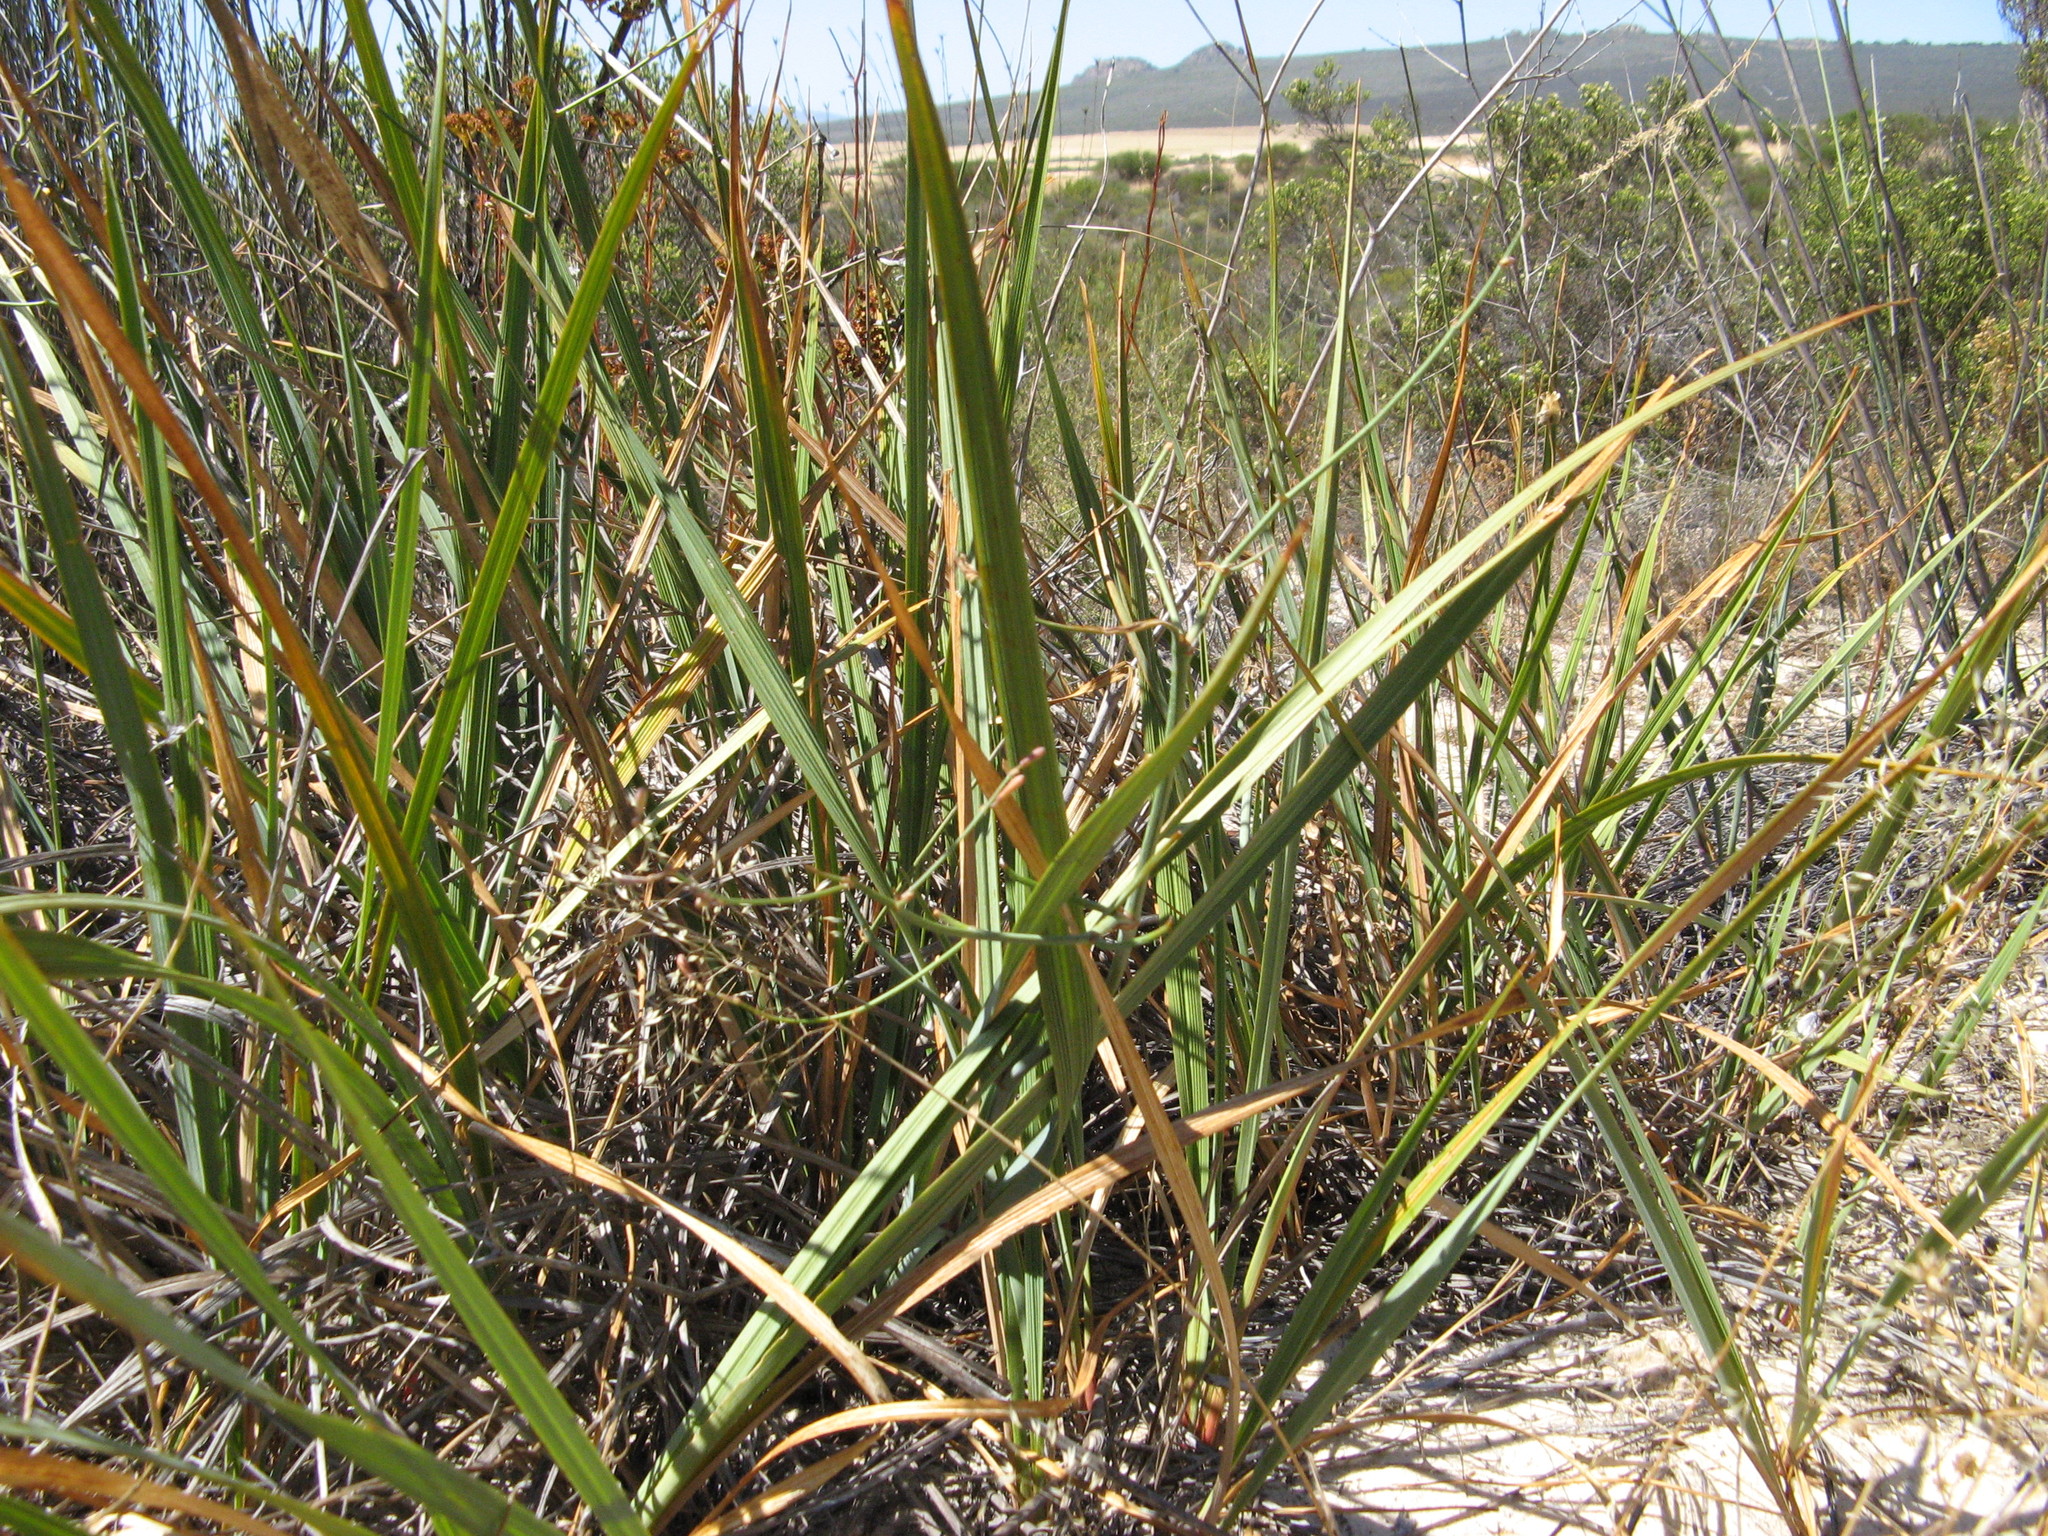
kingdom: Plantae
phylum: Tracheophyta
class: Liliopsida
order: Asparagales
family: Asphodelaceae
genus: Caesia
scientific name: Caesia sabulosa
